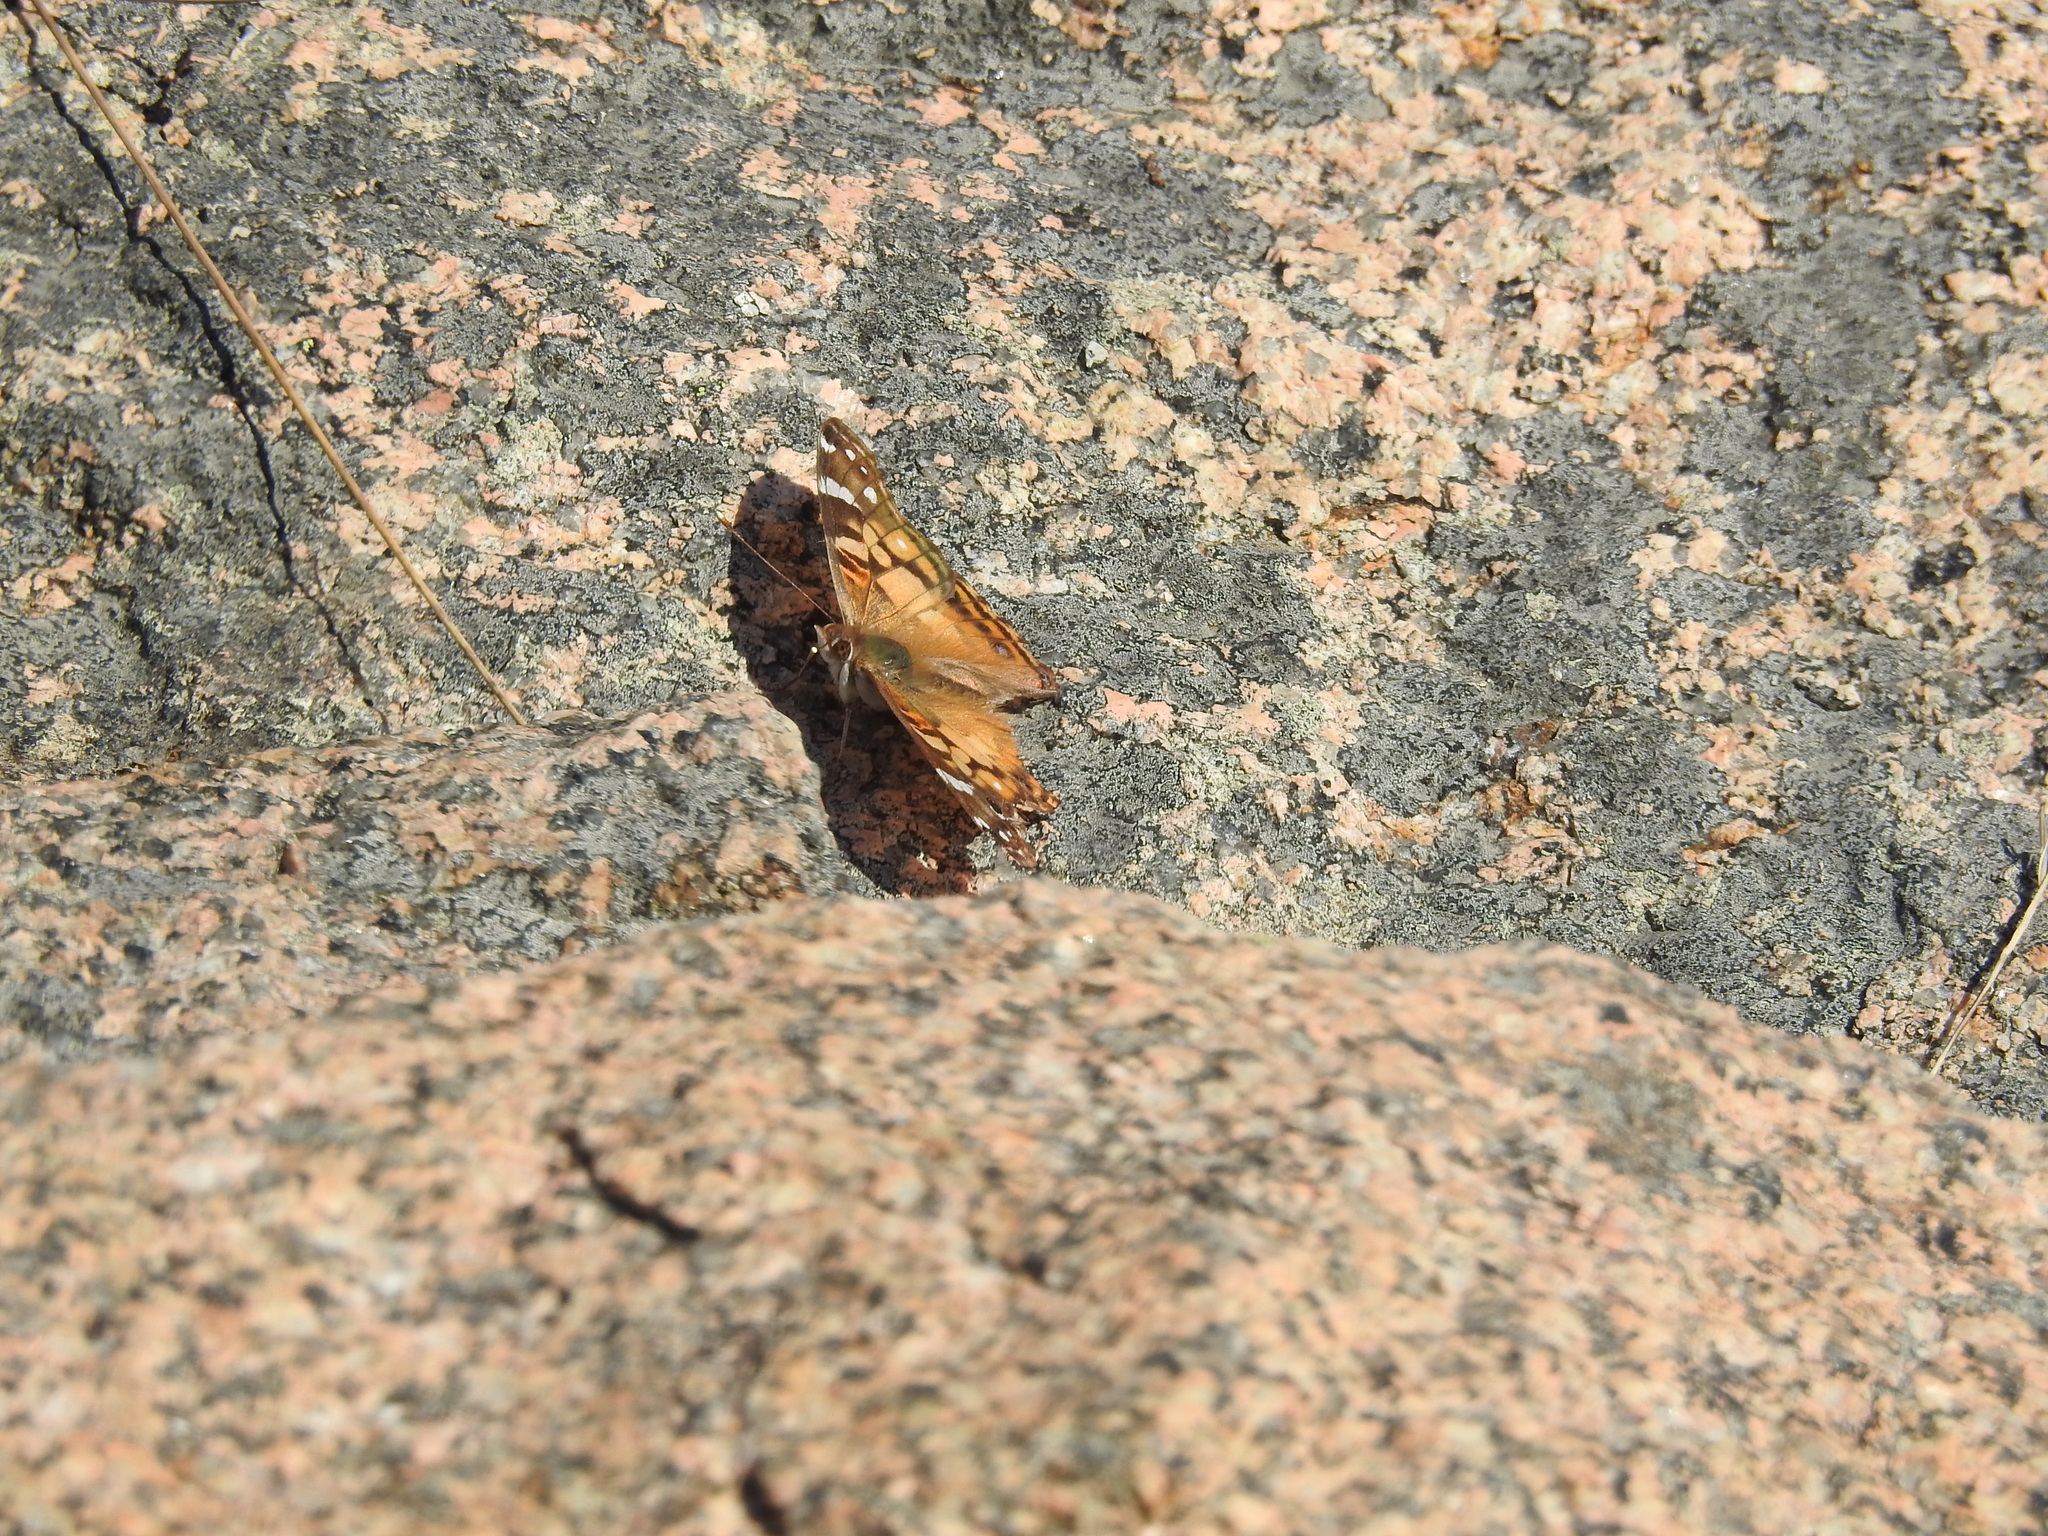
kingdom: Animalia
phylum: Arthropoda
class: Insecta
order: Lepidoptera
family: Nymphalidae
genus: Vanessa
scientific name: Vanessa virginiensis
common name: American lady
